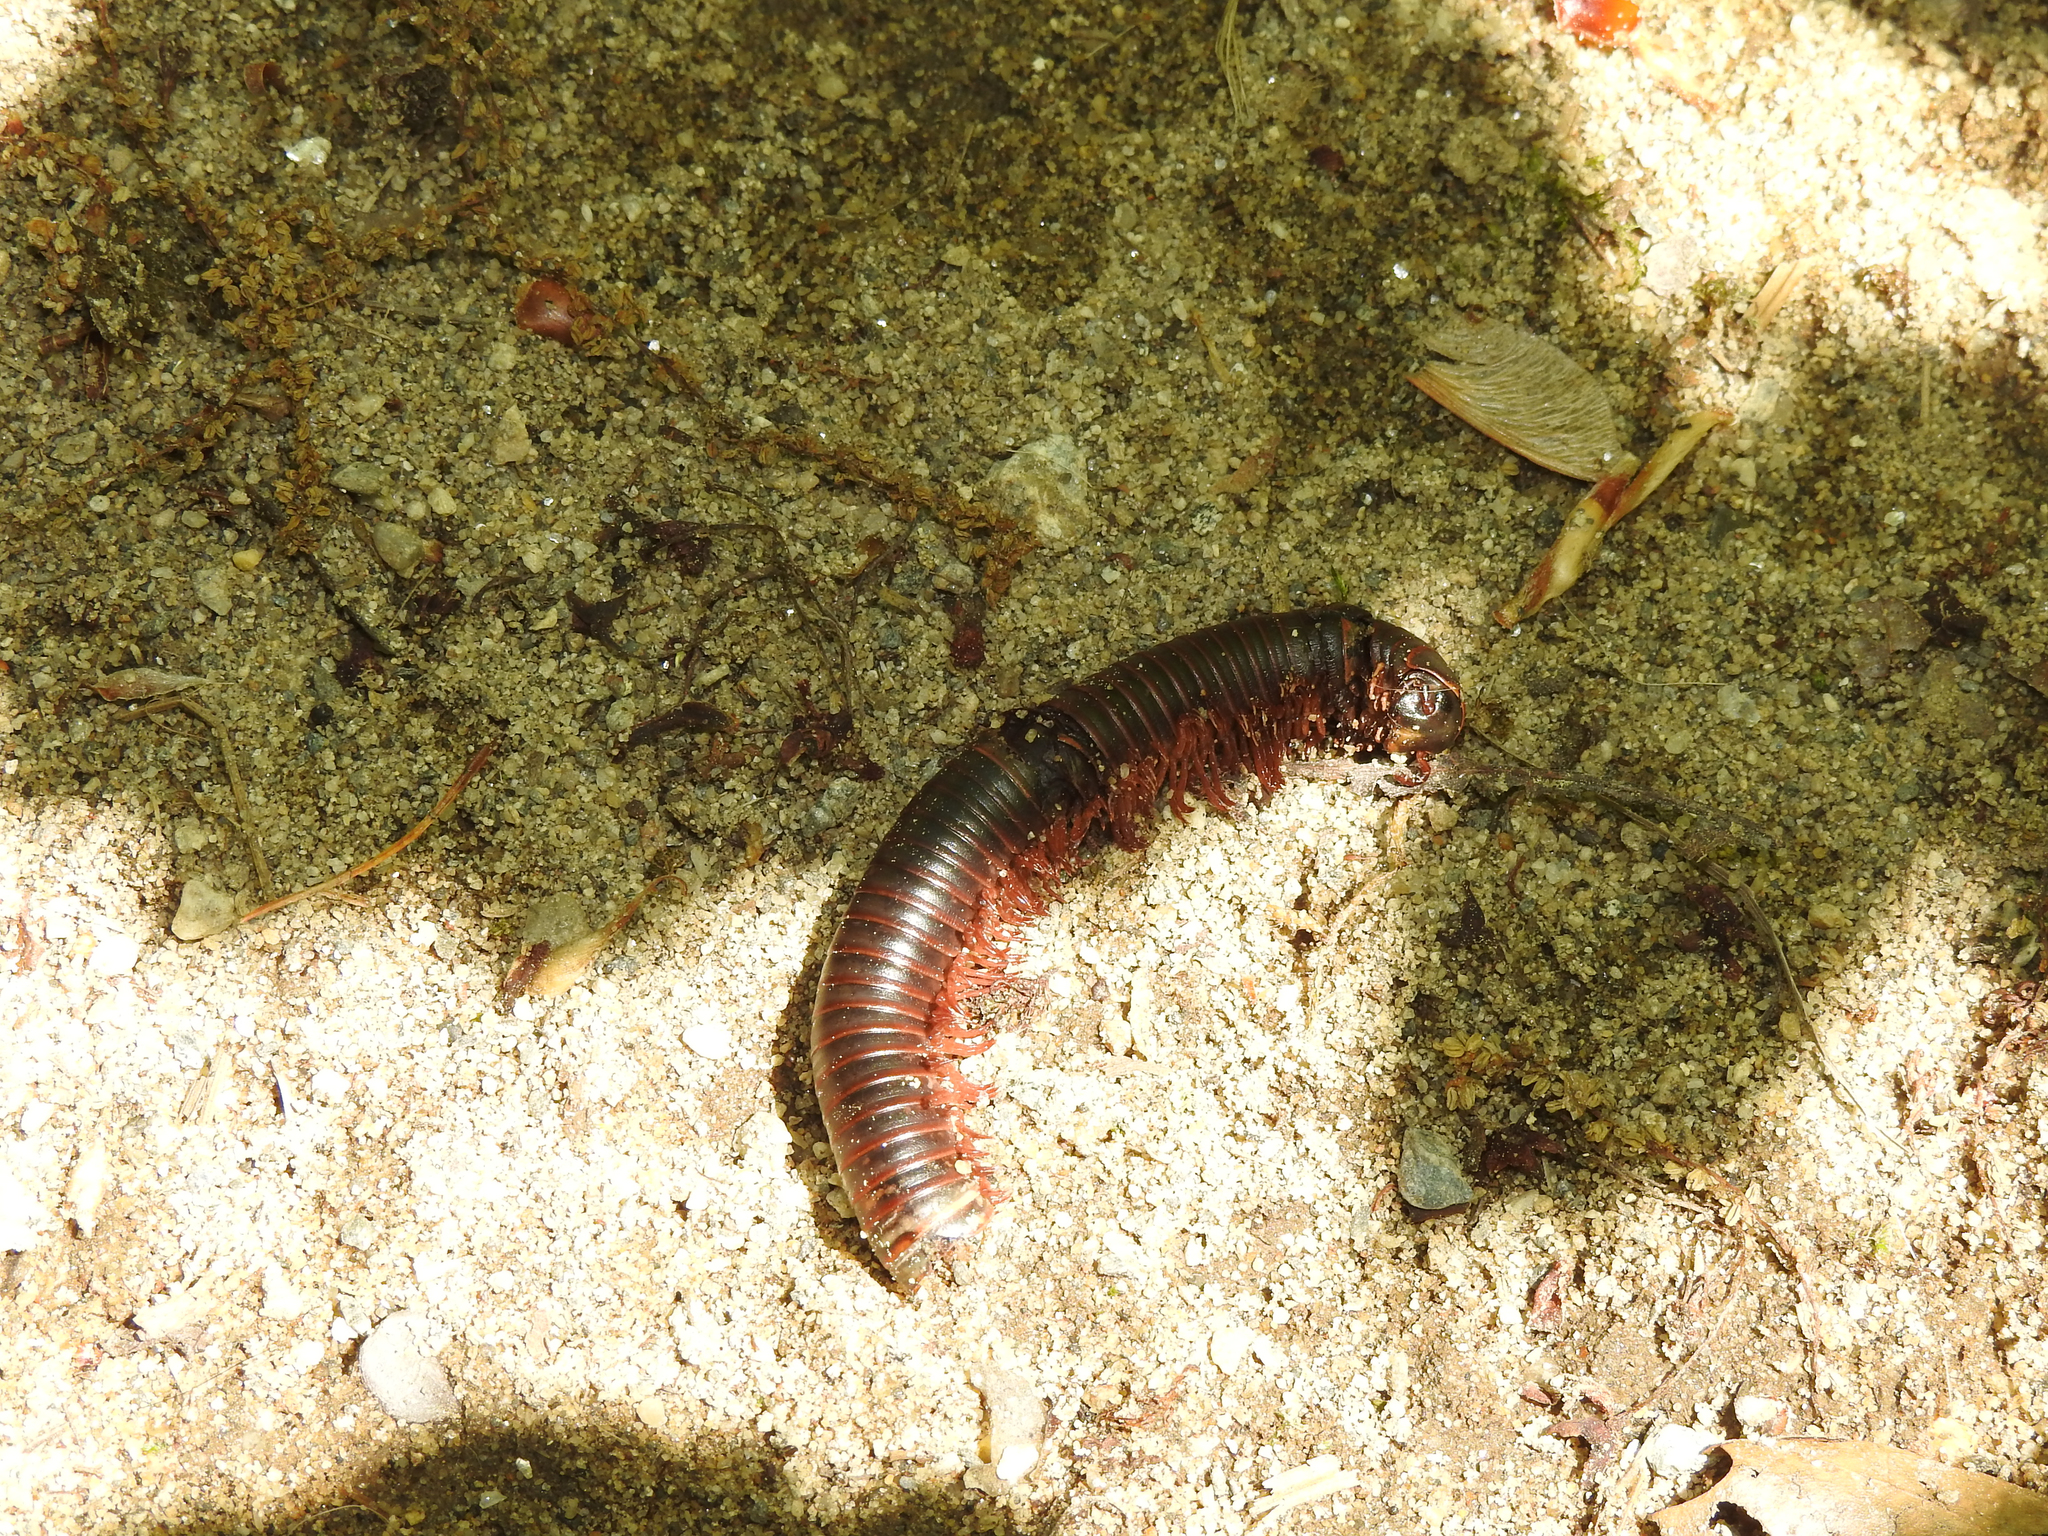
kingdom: Animalia
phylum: Arthropoda
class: Diplopoda
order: Spirobolida
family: Spirobolidae
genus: Narceus
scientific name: Narceus
